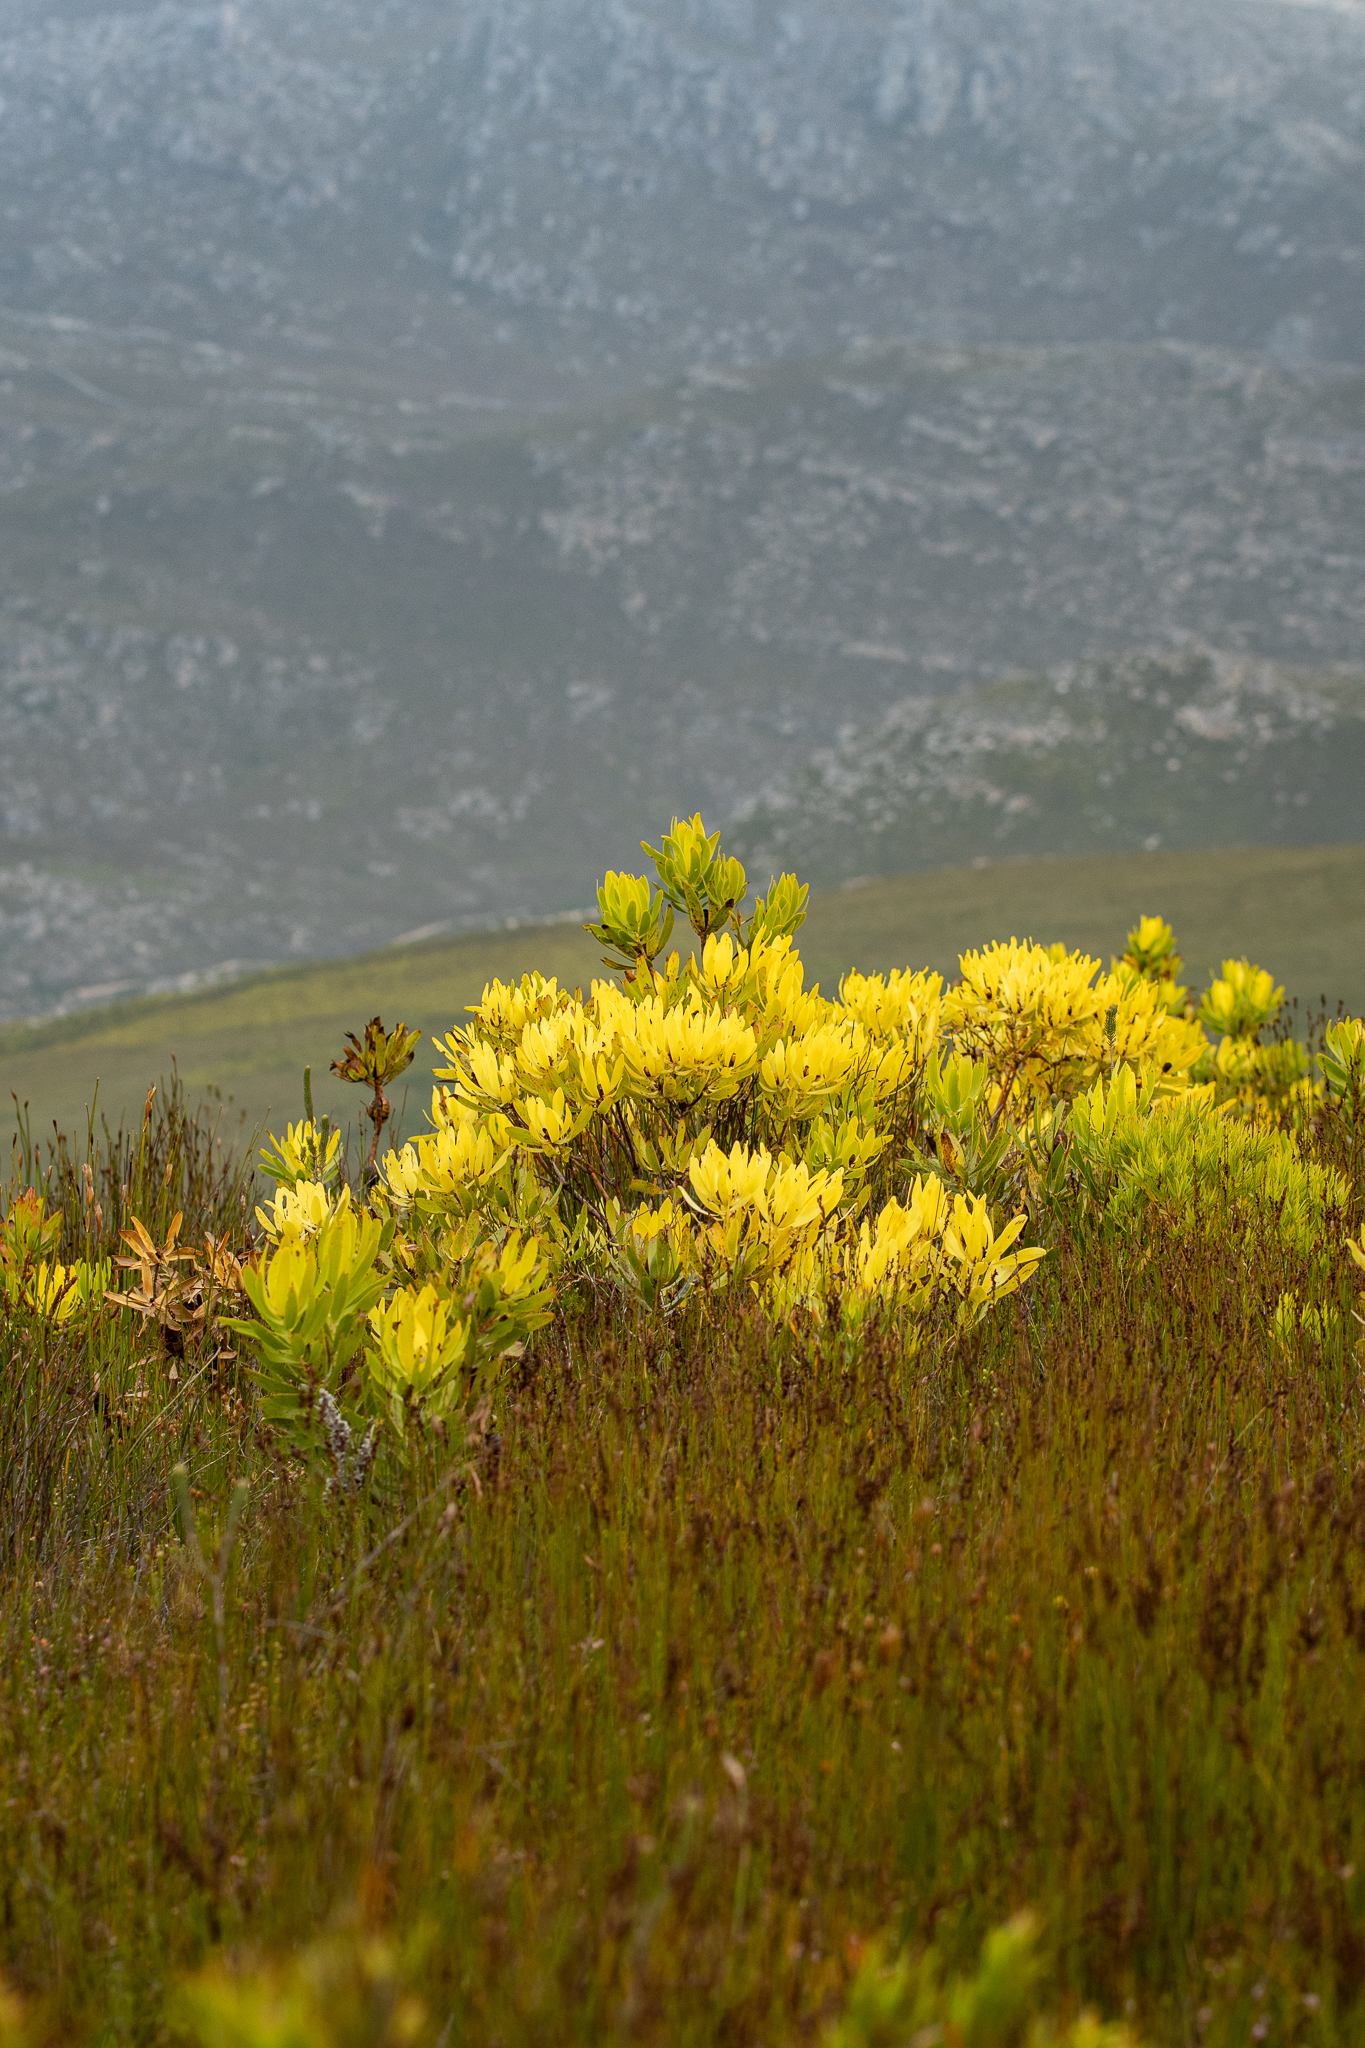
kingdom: Plantae
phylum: Tracheophyta
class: Magnoliopsida
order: Proteales
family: Proteaceae
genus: Leucadendron
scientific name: Leucadendron microcephalum
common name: Oilbract conebush
